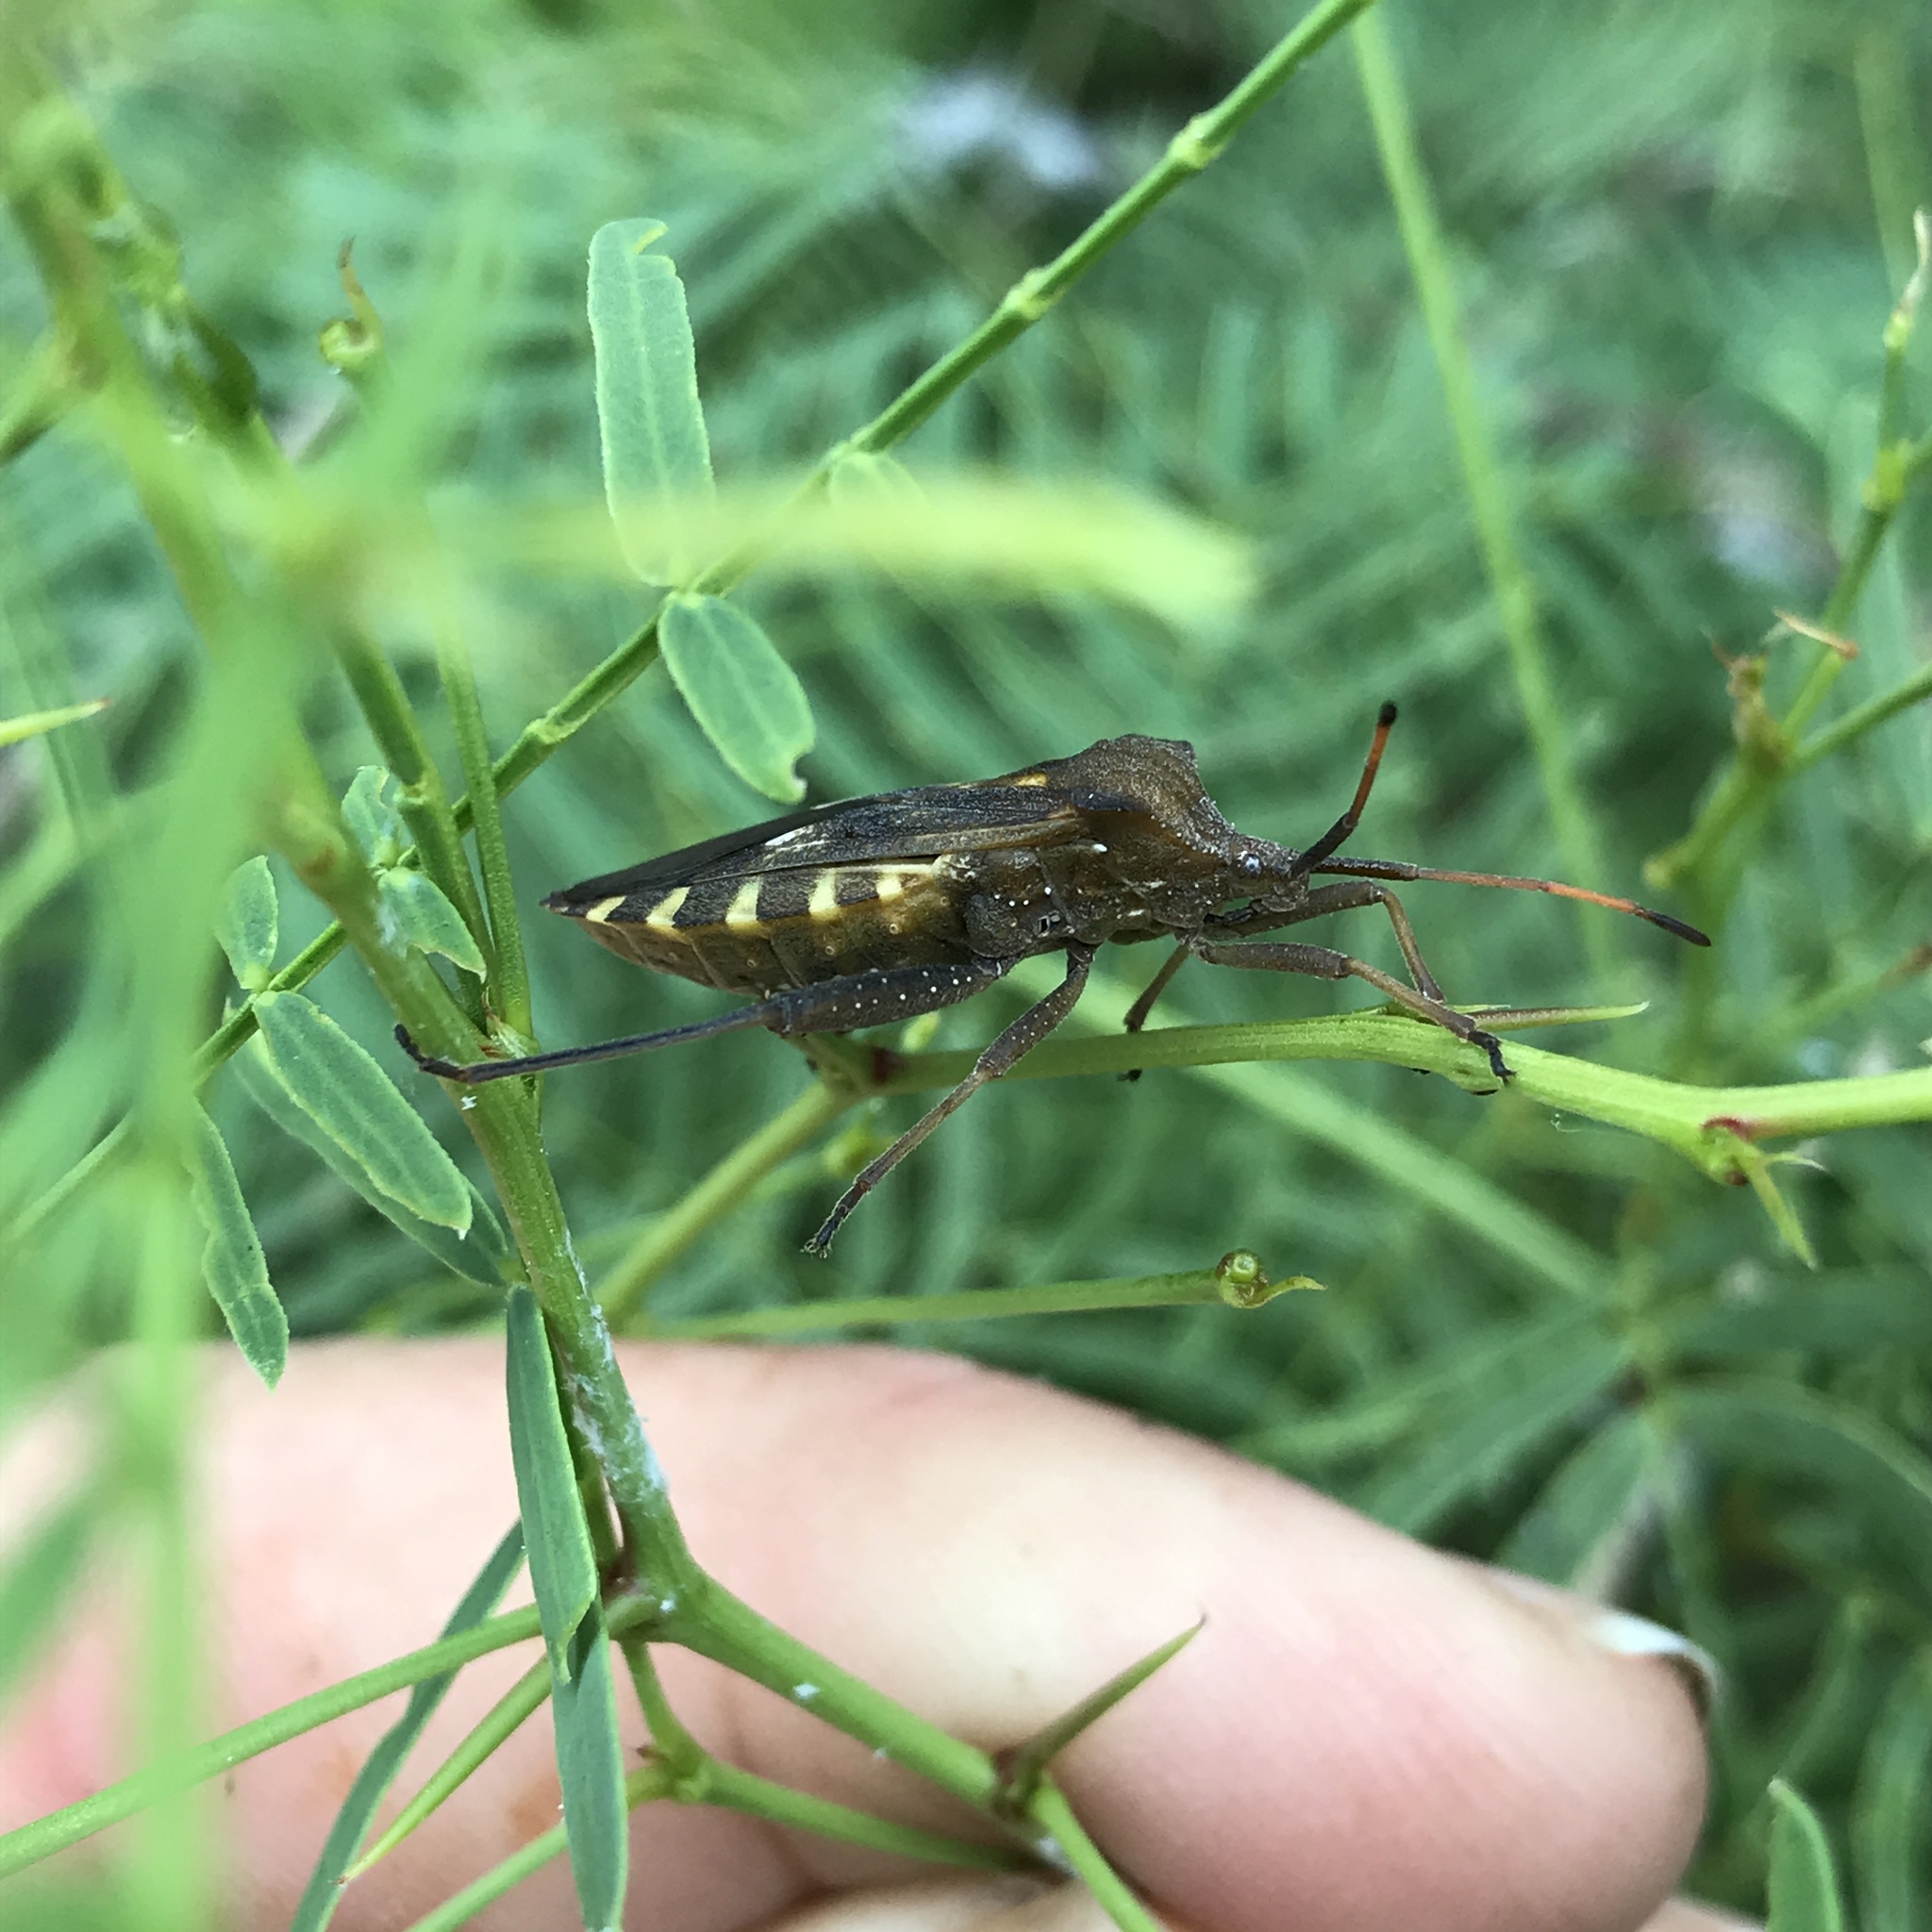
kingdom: Animalia
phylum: Arthropoda
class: Insecta
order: Hemiptera
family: Coreidae
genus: Mozena
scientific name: Mozena obtusa
